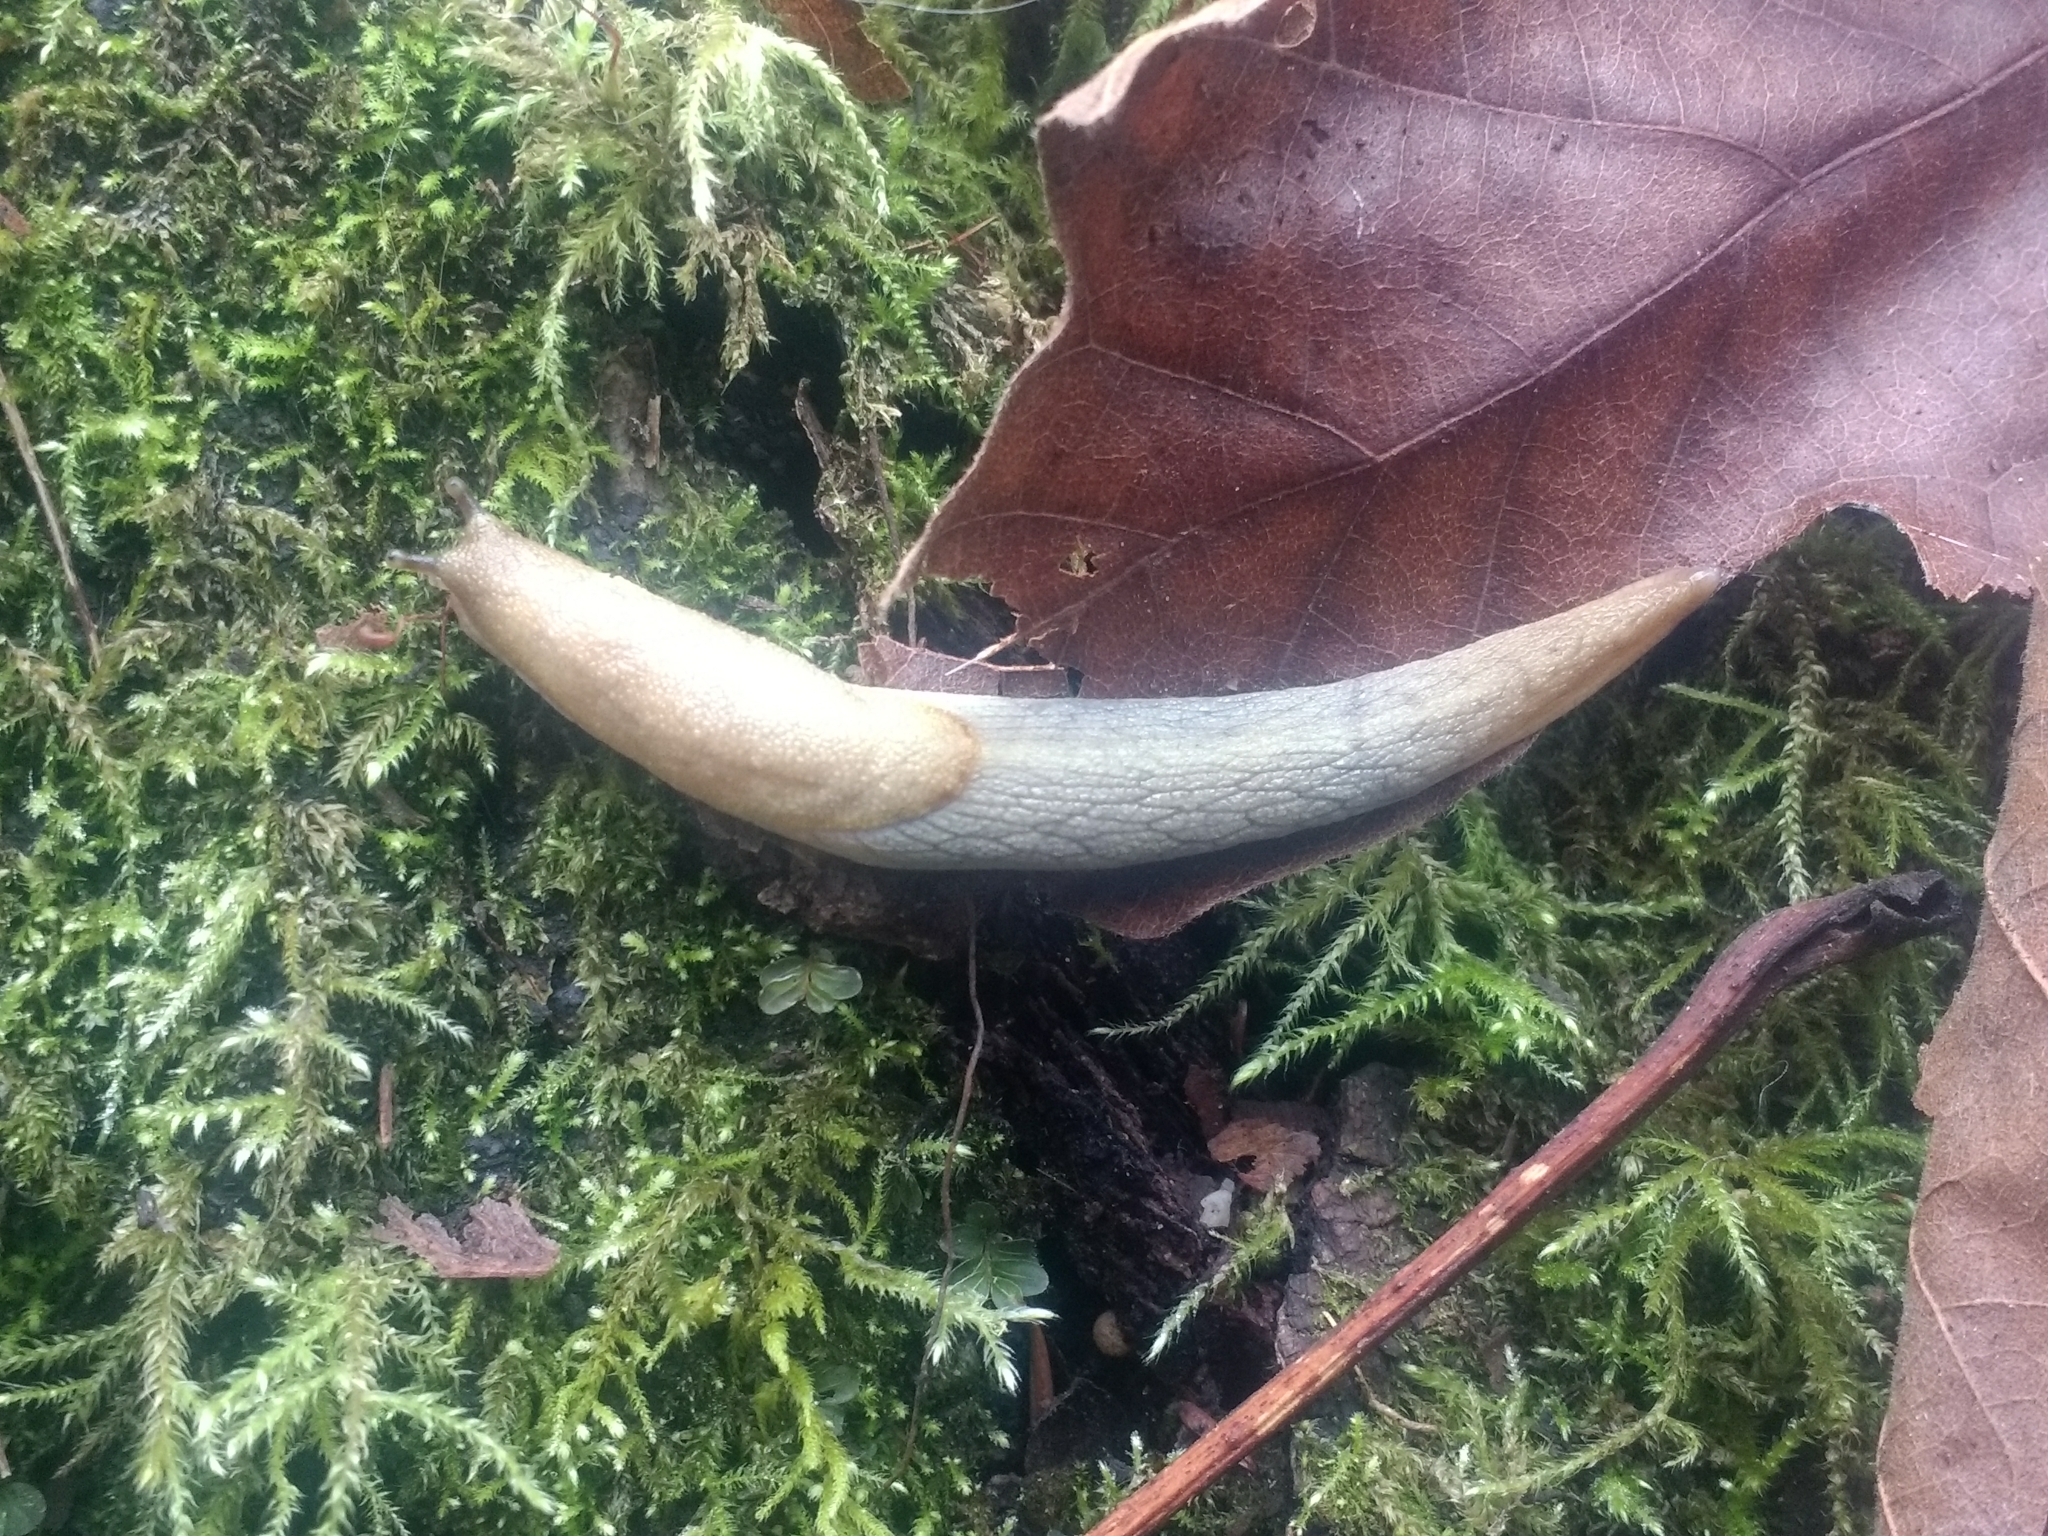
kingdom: Animalia
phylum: Mollusca
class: Gastropoda
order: Stylommatophora
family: Ariolimacidae
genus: Prophysaon
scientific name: Prophysaon andersonii
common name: Reticulate taildropper
